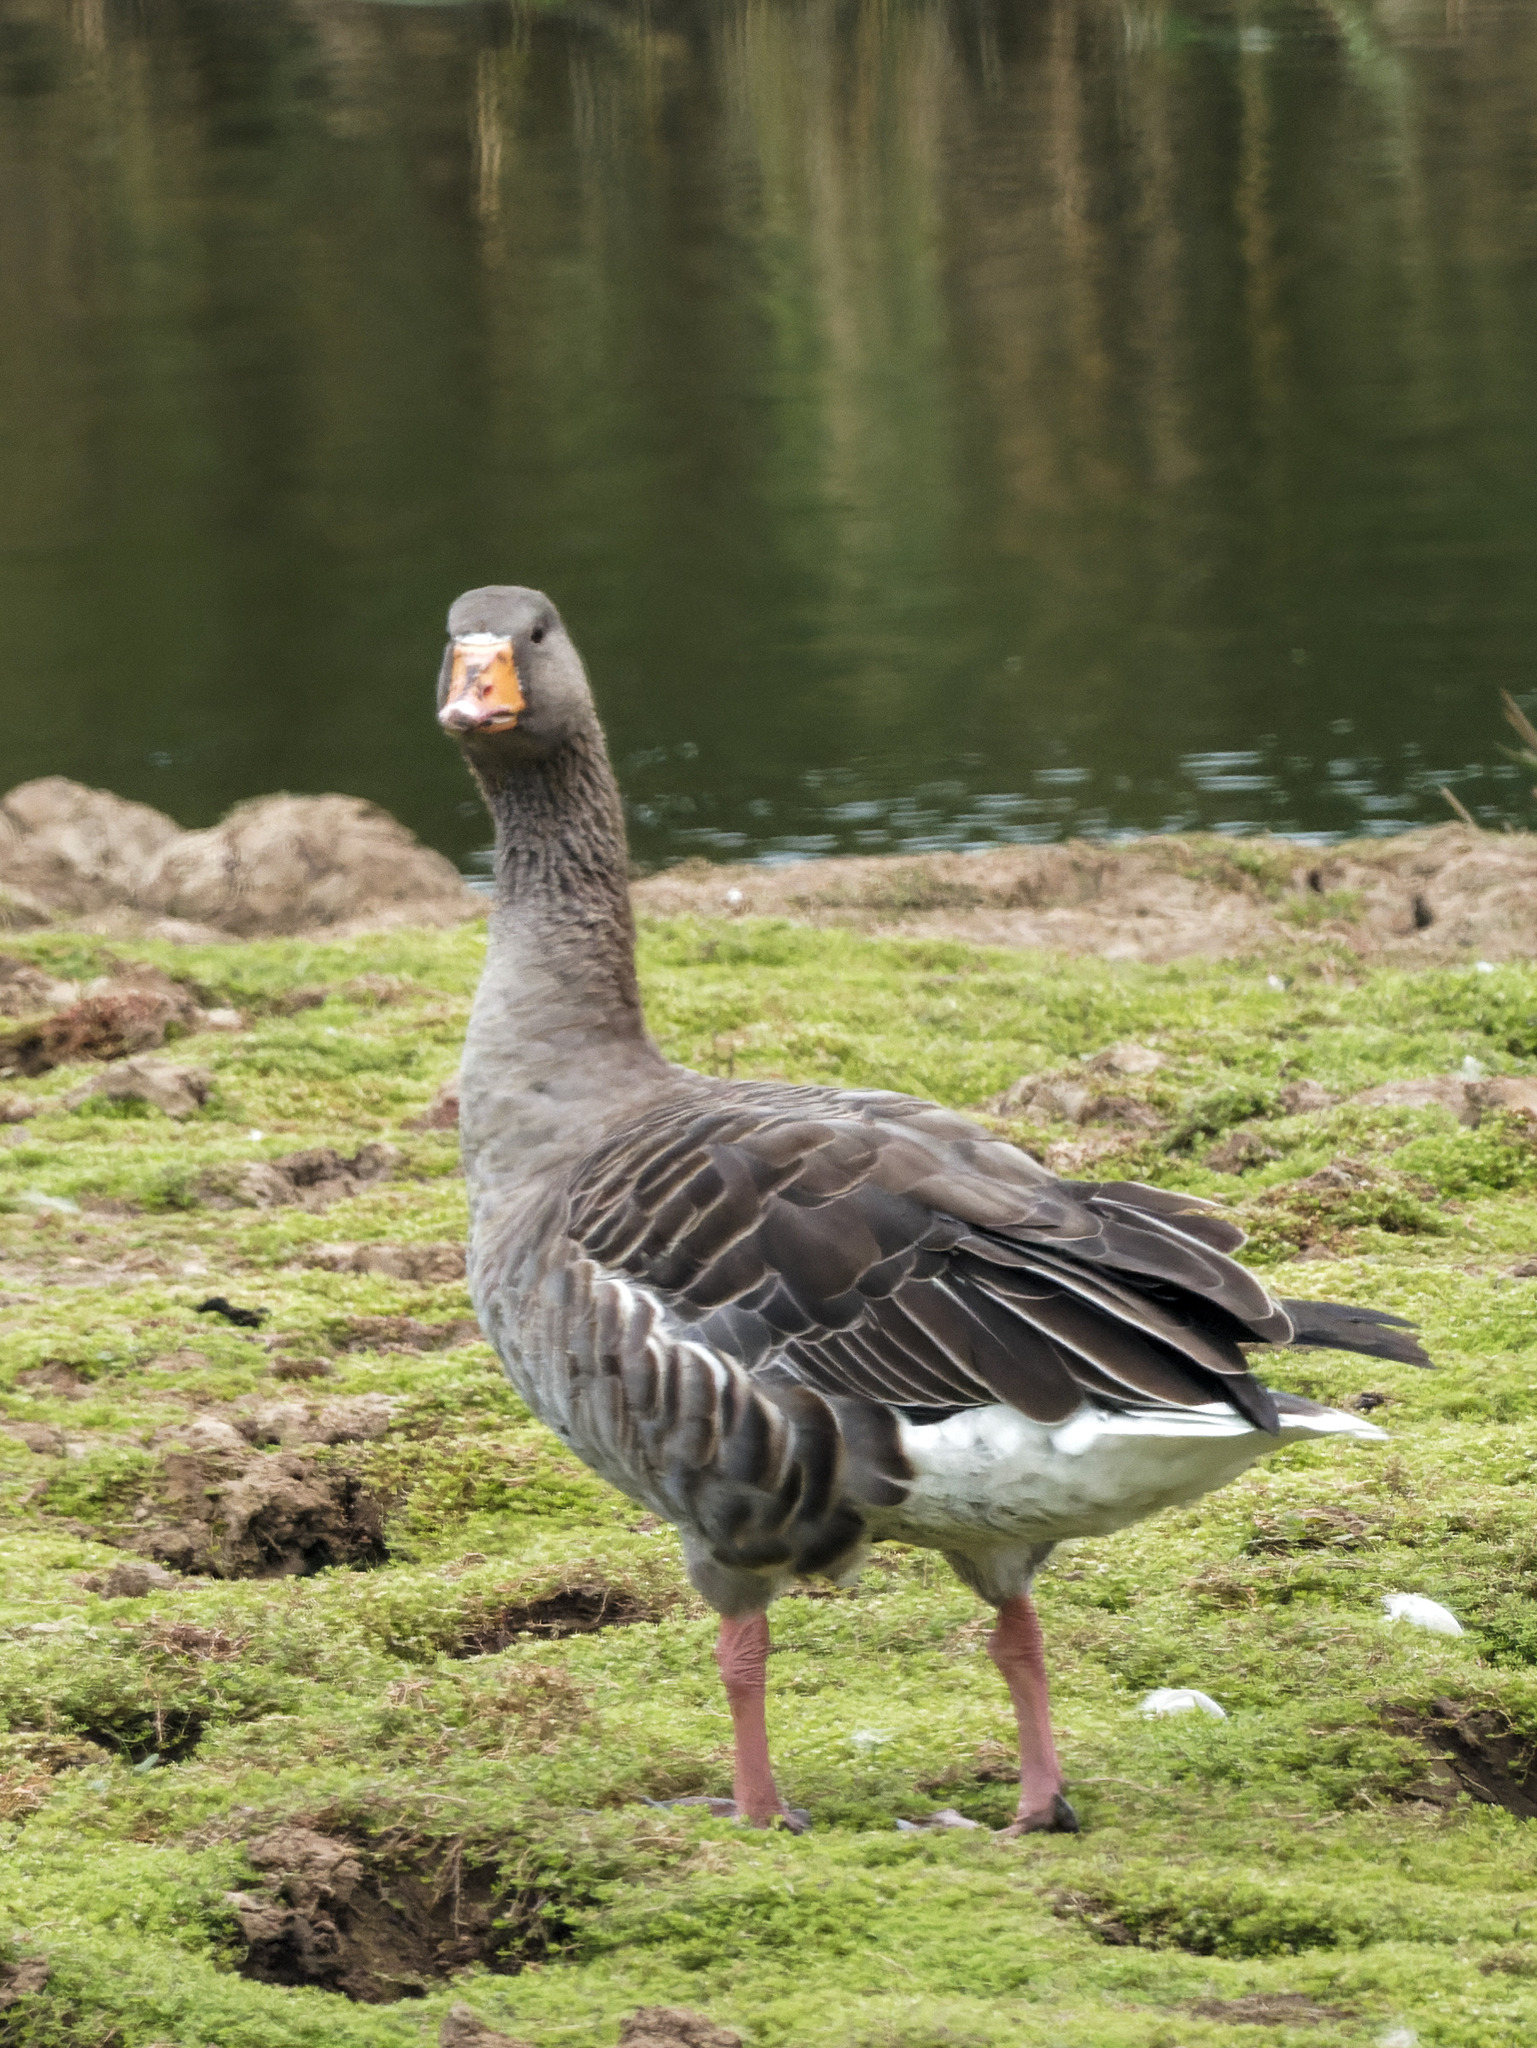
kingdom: Animalia
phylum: Chordata
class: Aves
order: Anseriformes
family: Anatidae
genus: Anser
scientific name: Anser anser
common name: Greylag goose
